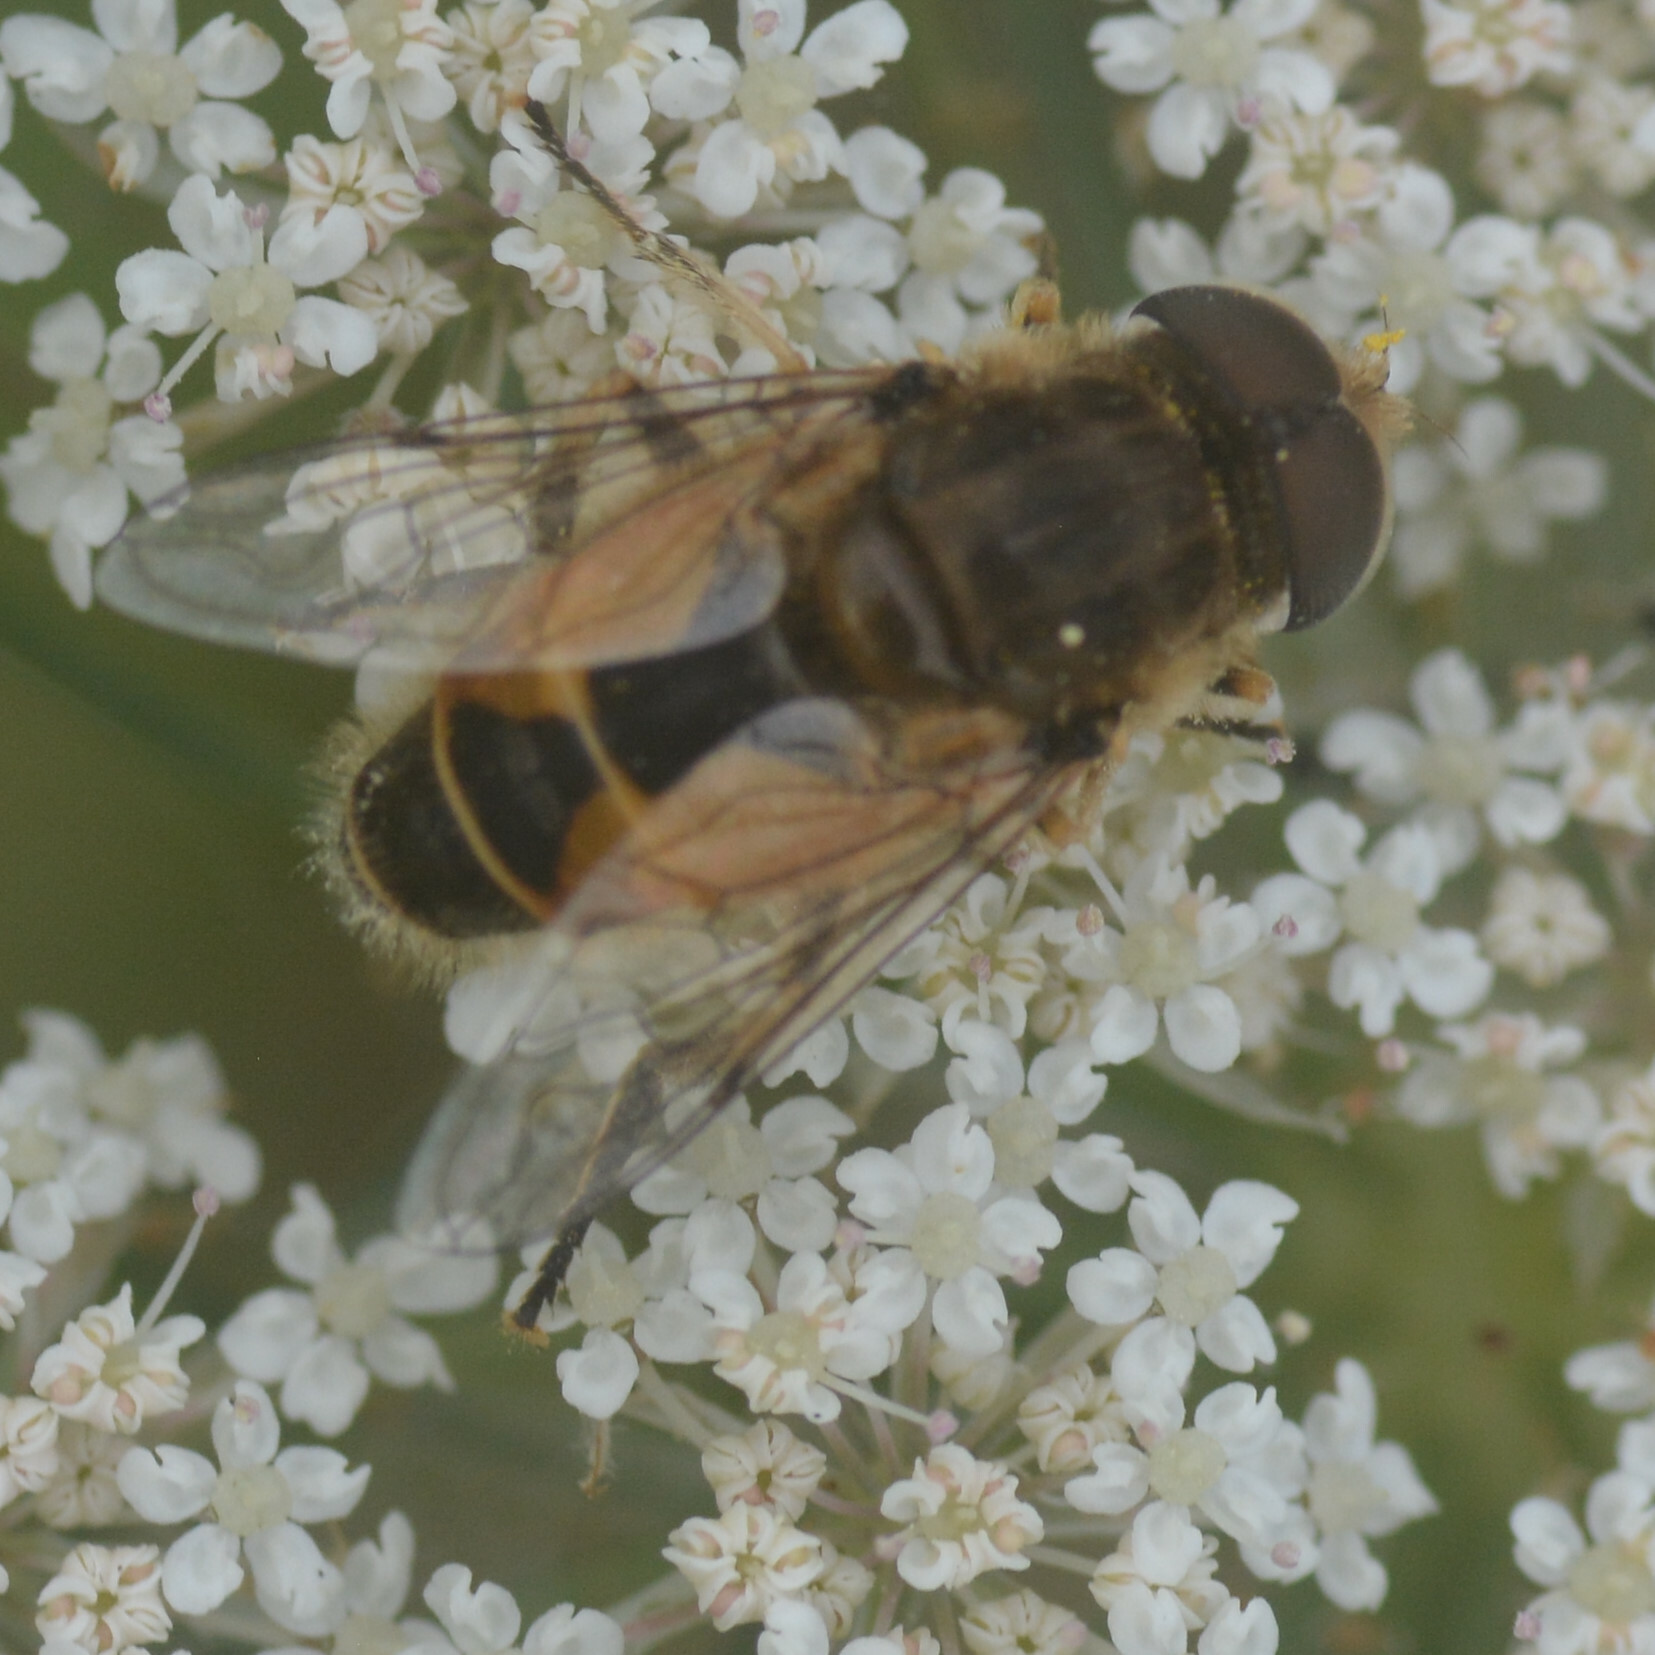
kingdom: Animalia
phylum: Arthropoda
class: Insecta
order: Diptera
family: Syrphidae
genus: Eristalis
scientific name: Eristalis arbustorum
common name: Hover fly
